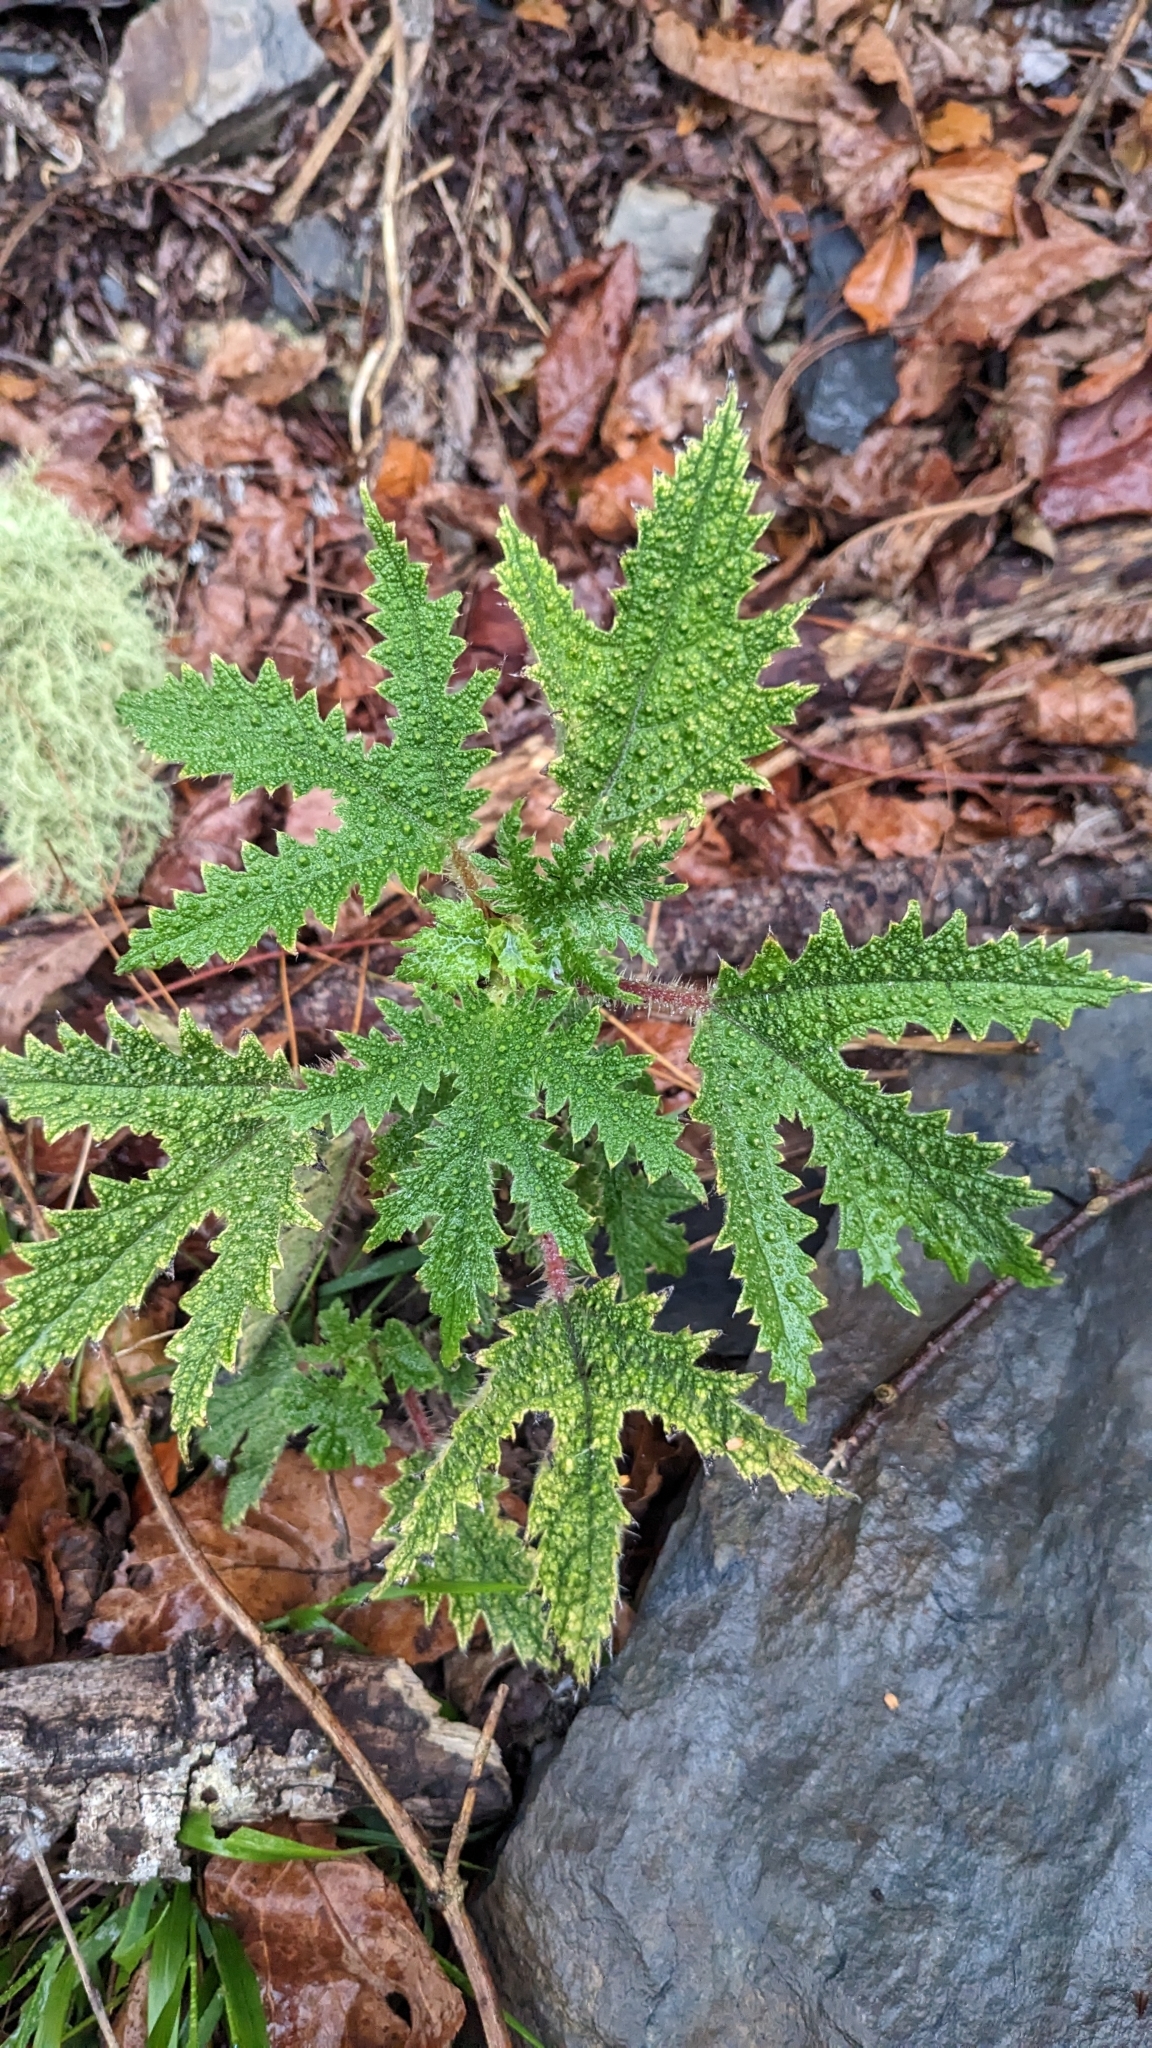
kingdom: Plantae
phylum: Tracheophyta
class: Magnoliopsida
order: Rosales
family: Urticaceae
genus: Girardinia
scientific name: Girardinia diversifolia
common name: Himalayan-nettle
